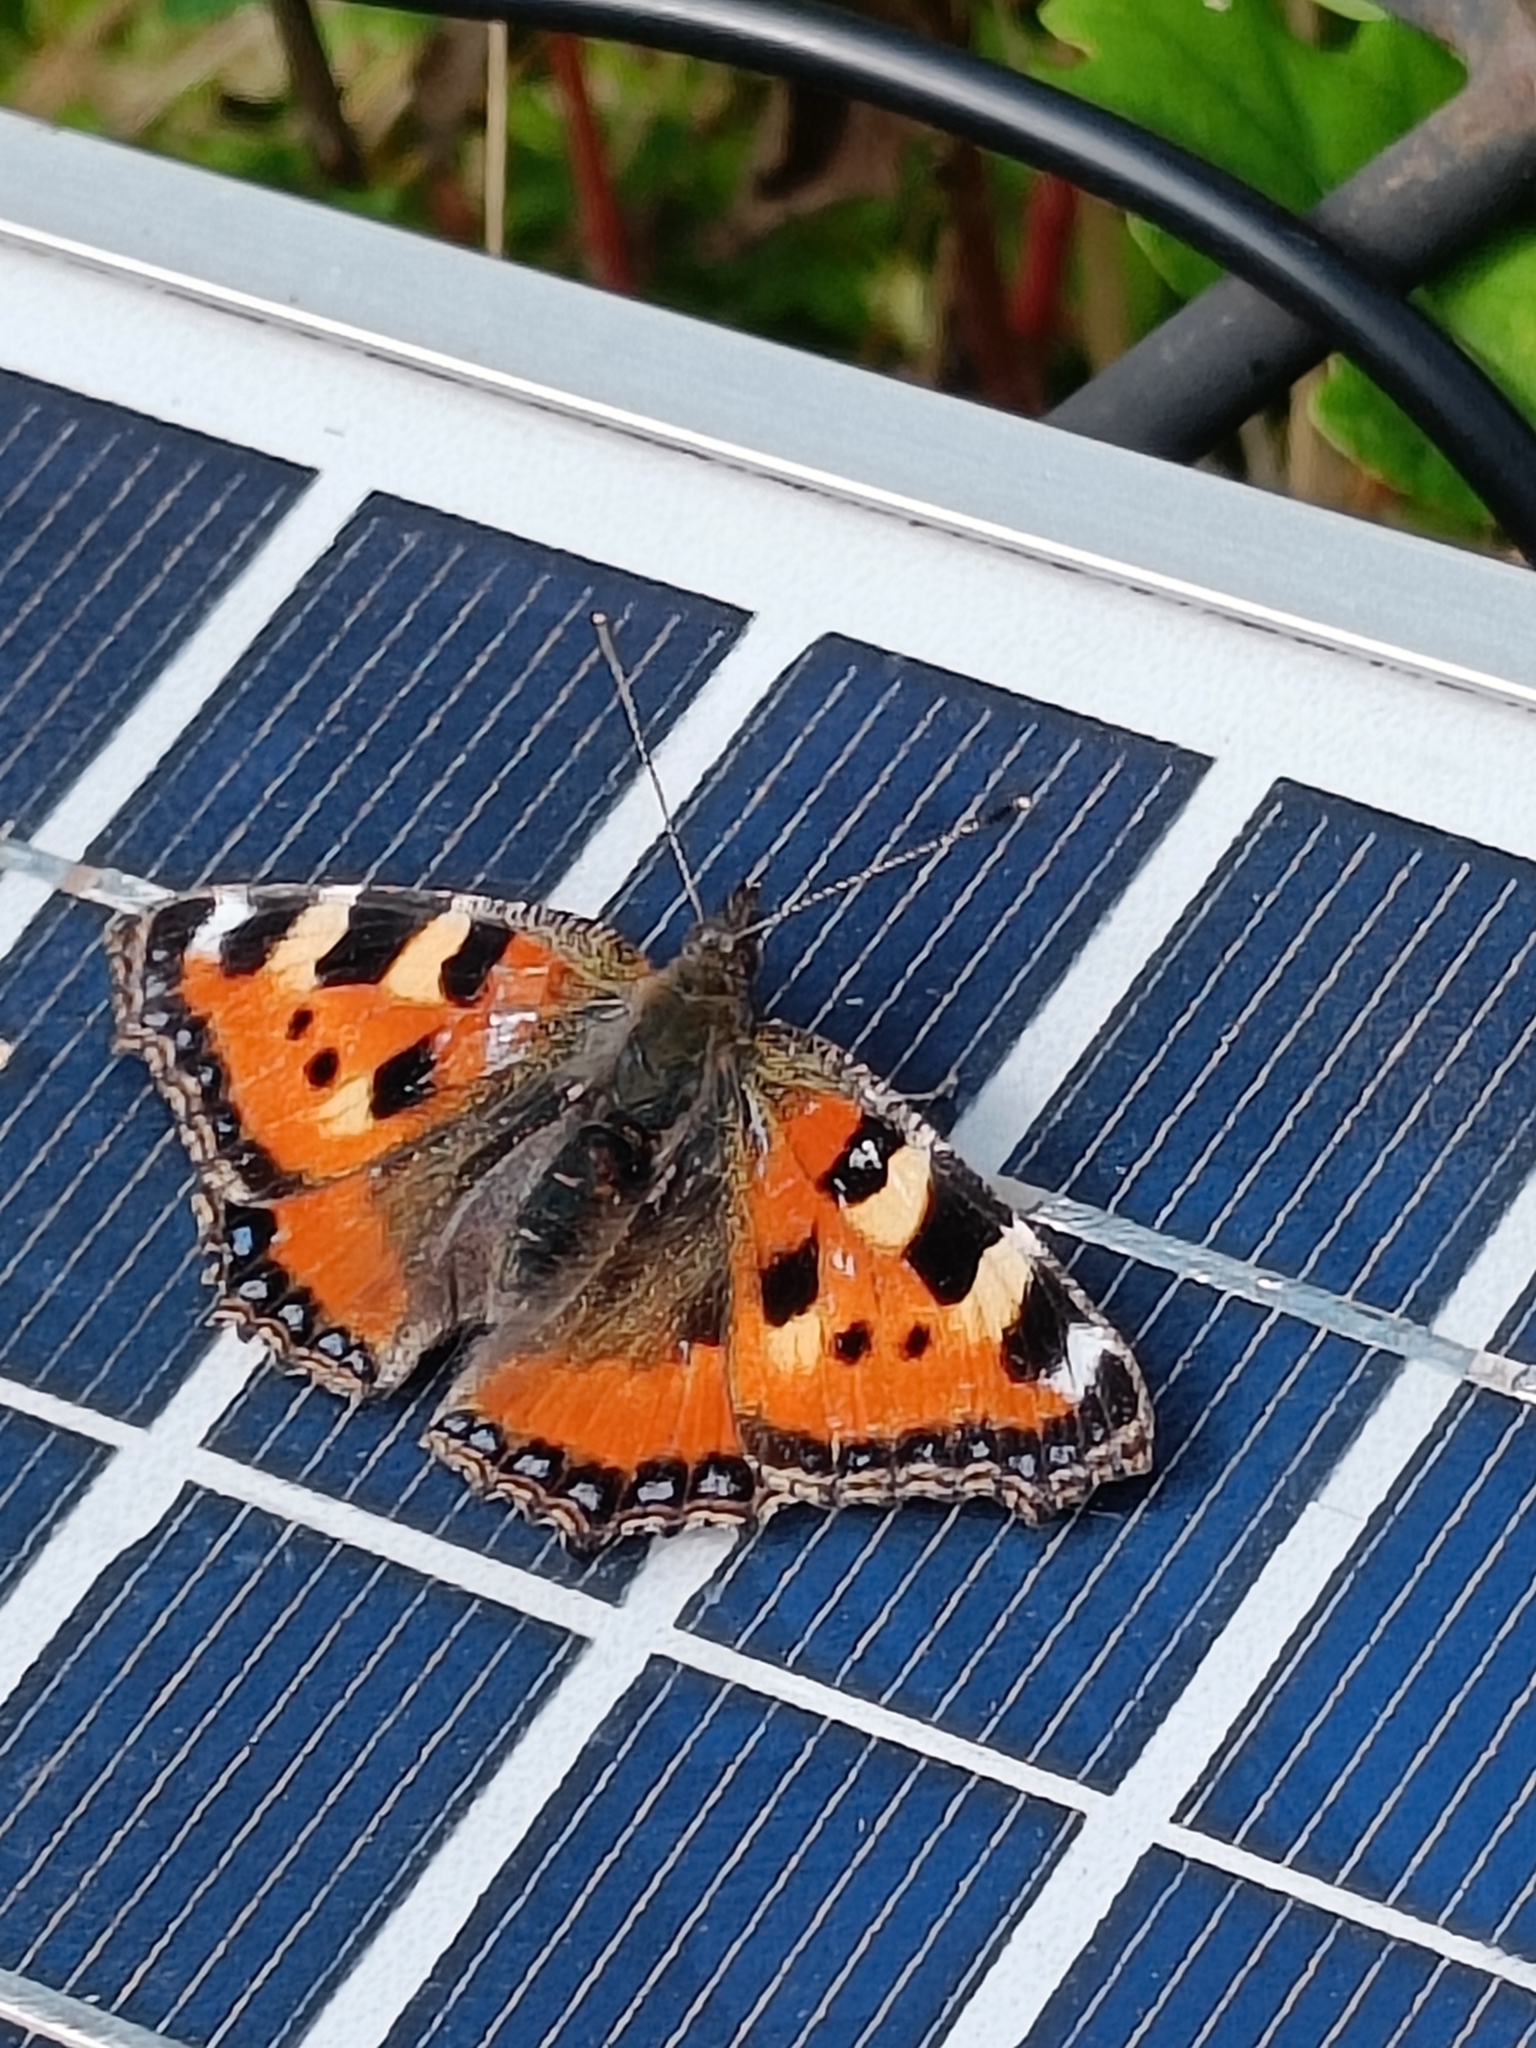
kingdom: Animalia
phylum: Arthropoda
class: Insecta
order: Lepidoptera
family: Nymphalidae
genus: Aglais
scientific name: Aglais urticae
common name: Small tortoiseshell
